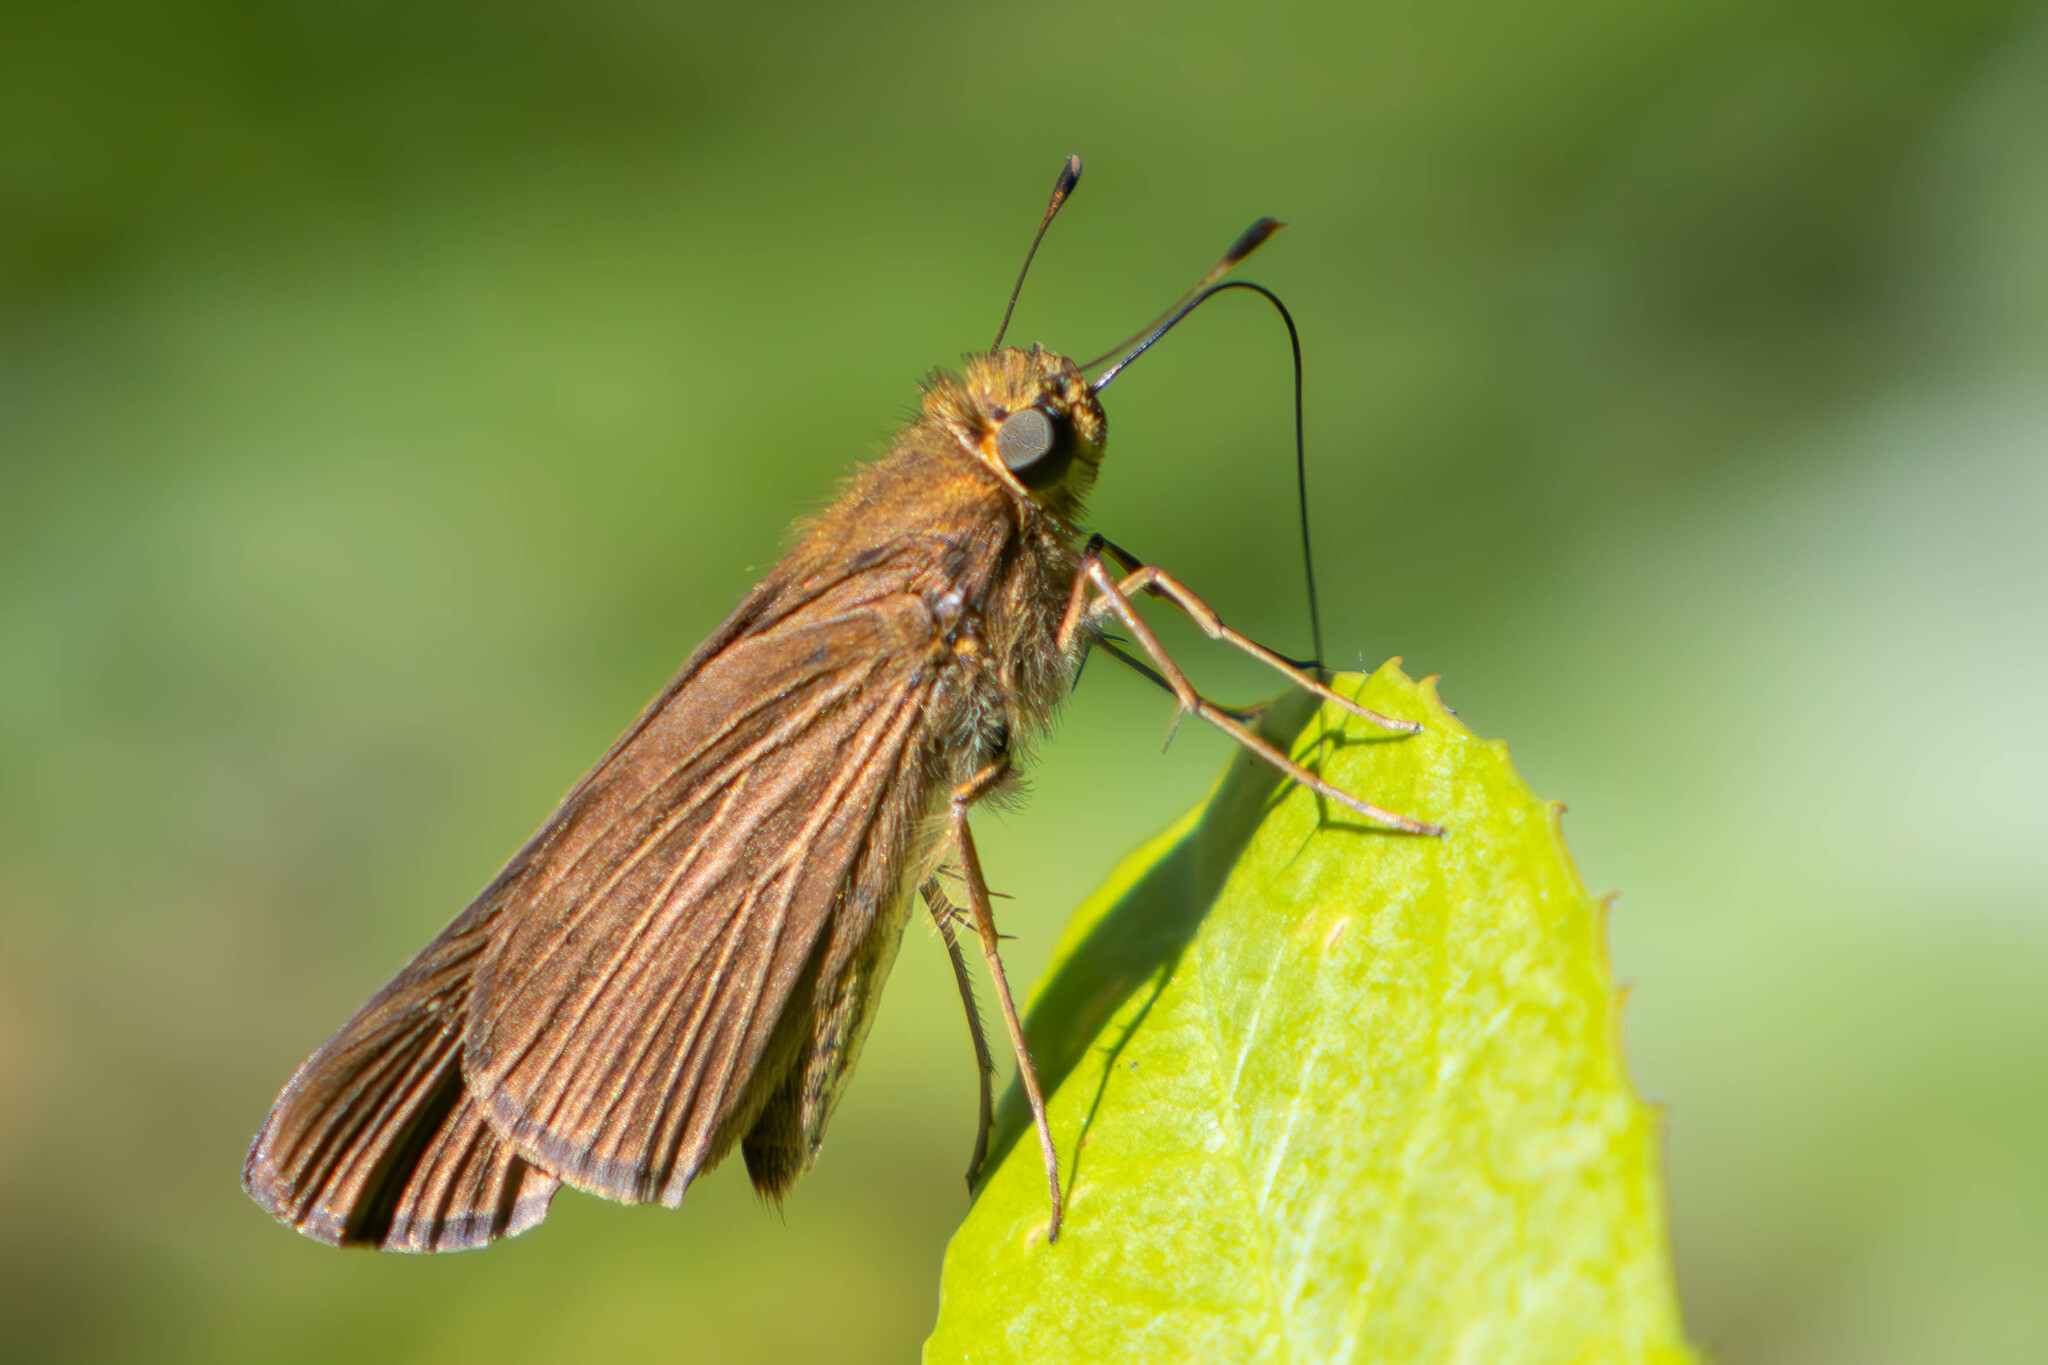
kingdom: Animalia
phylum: Arthropoda
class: Insecta
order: Lepidoptera
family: Hesperiidae
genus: Panoquina
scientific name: Panoquina ocola
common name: Ocola skipper
